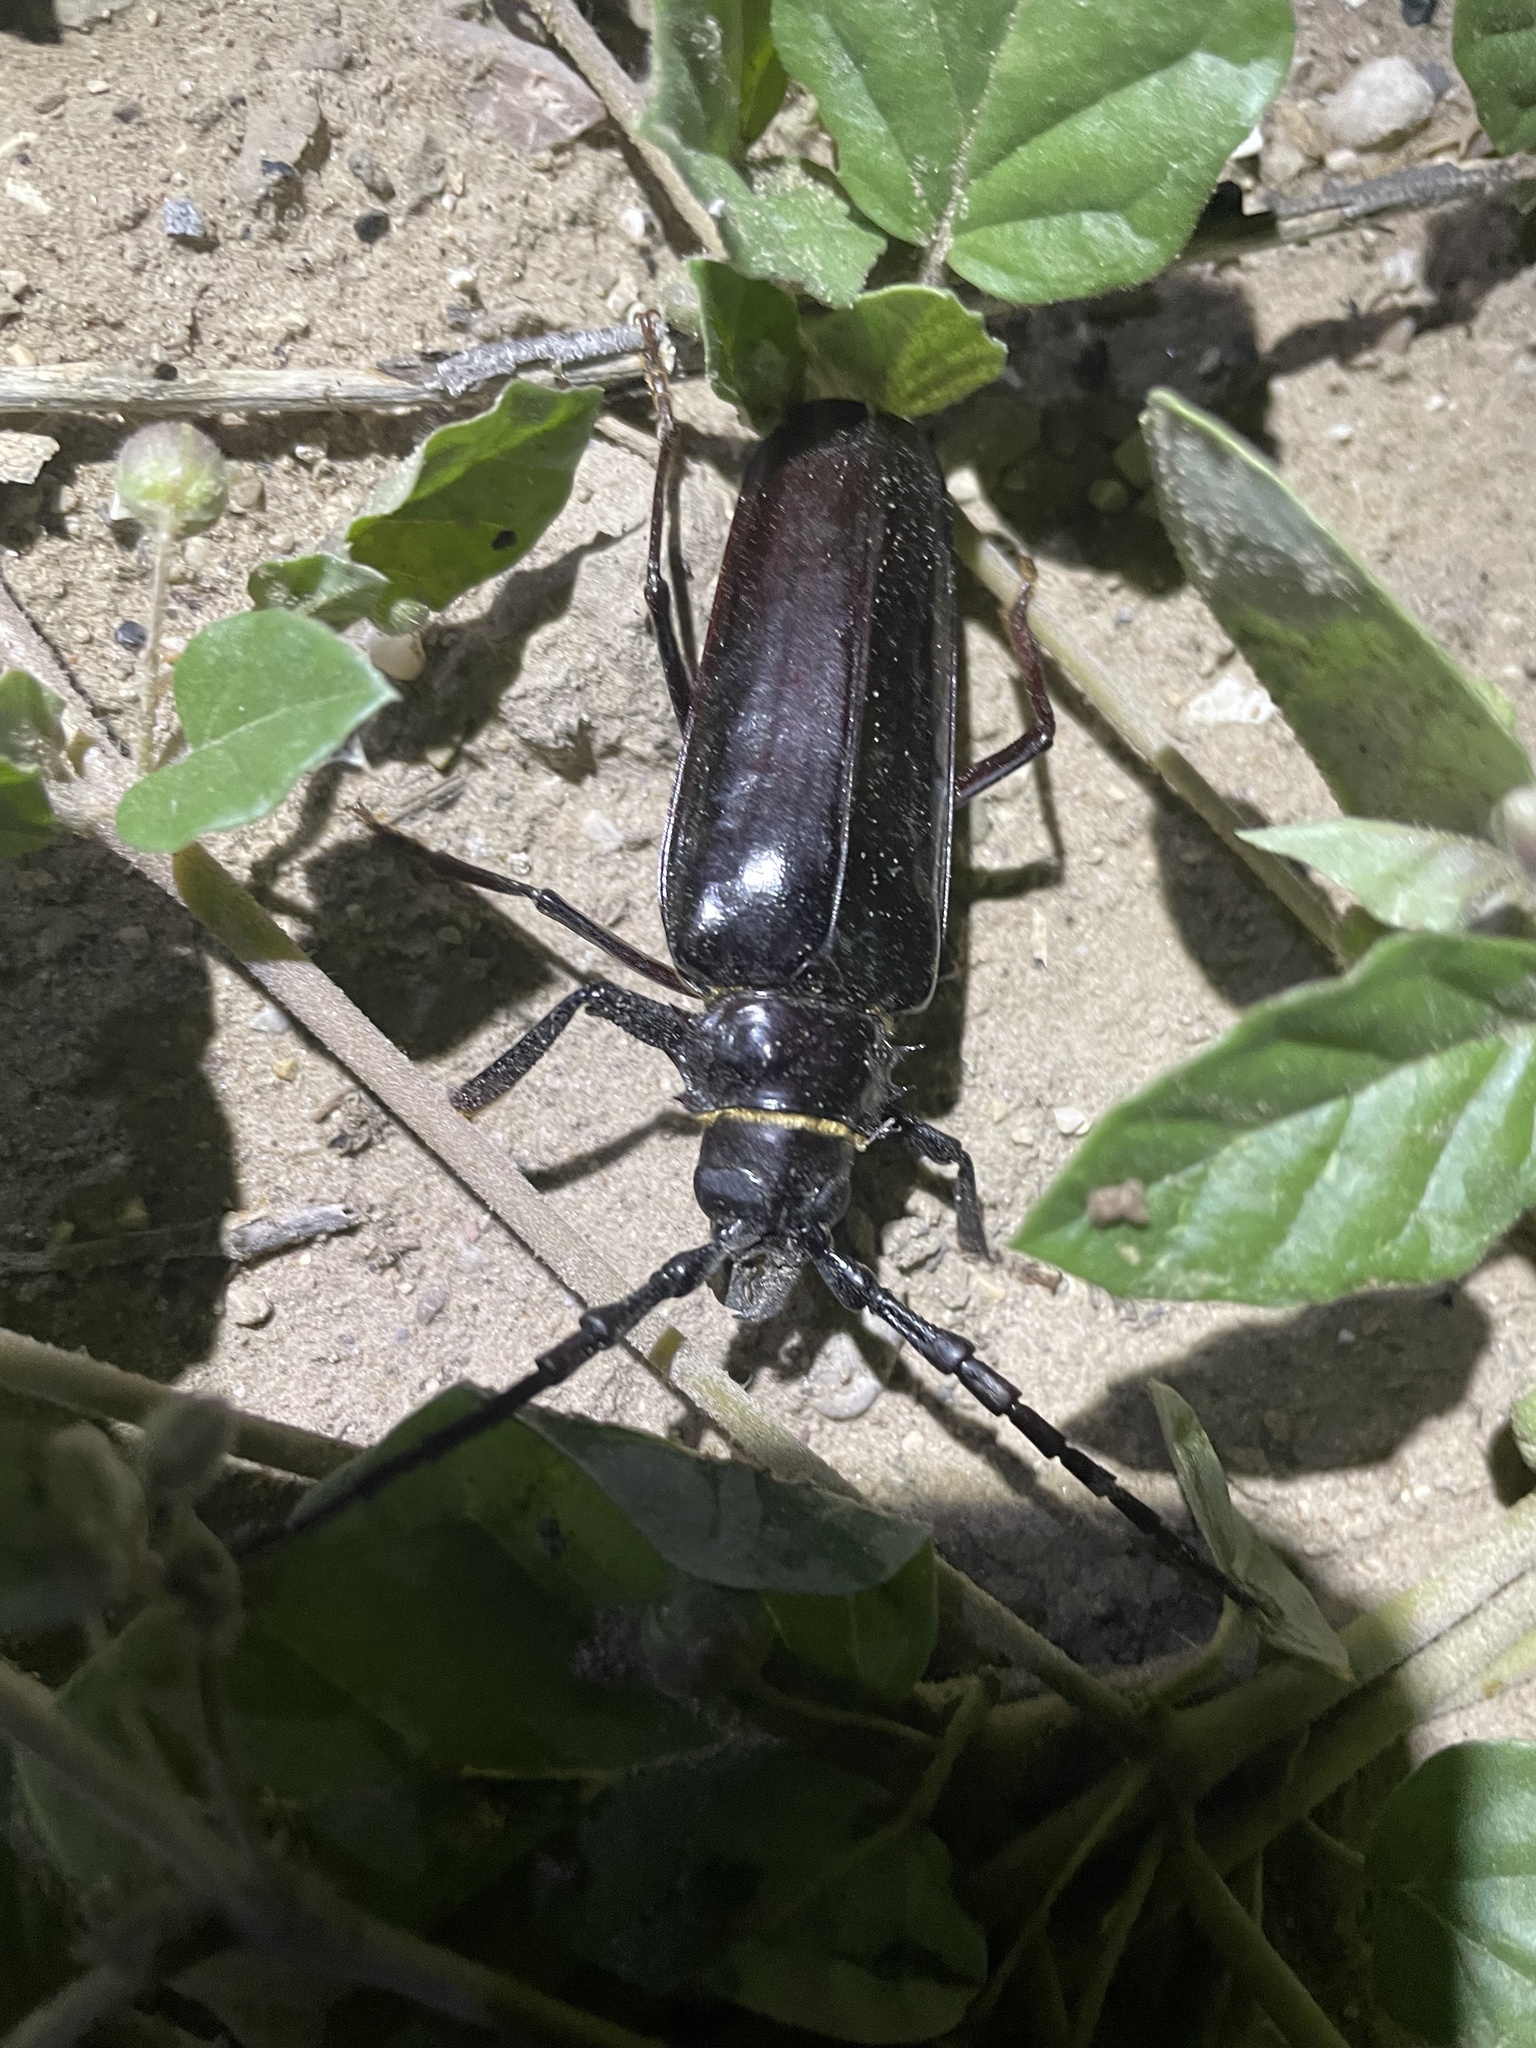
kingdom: Animalia
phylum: Arthropoda
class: Insecta
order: Coleoptera
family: Cerambycidae
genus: Derobrachus
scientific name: Derobrachus hovorei
